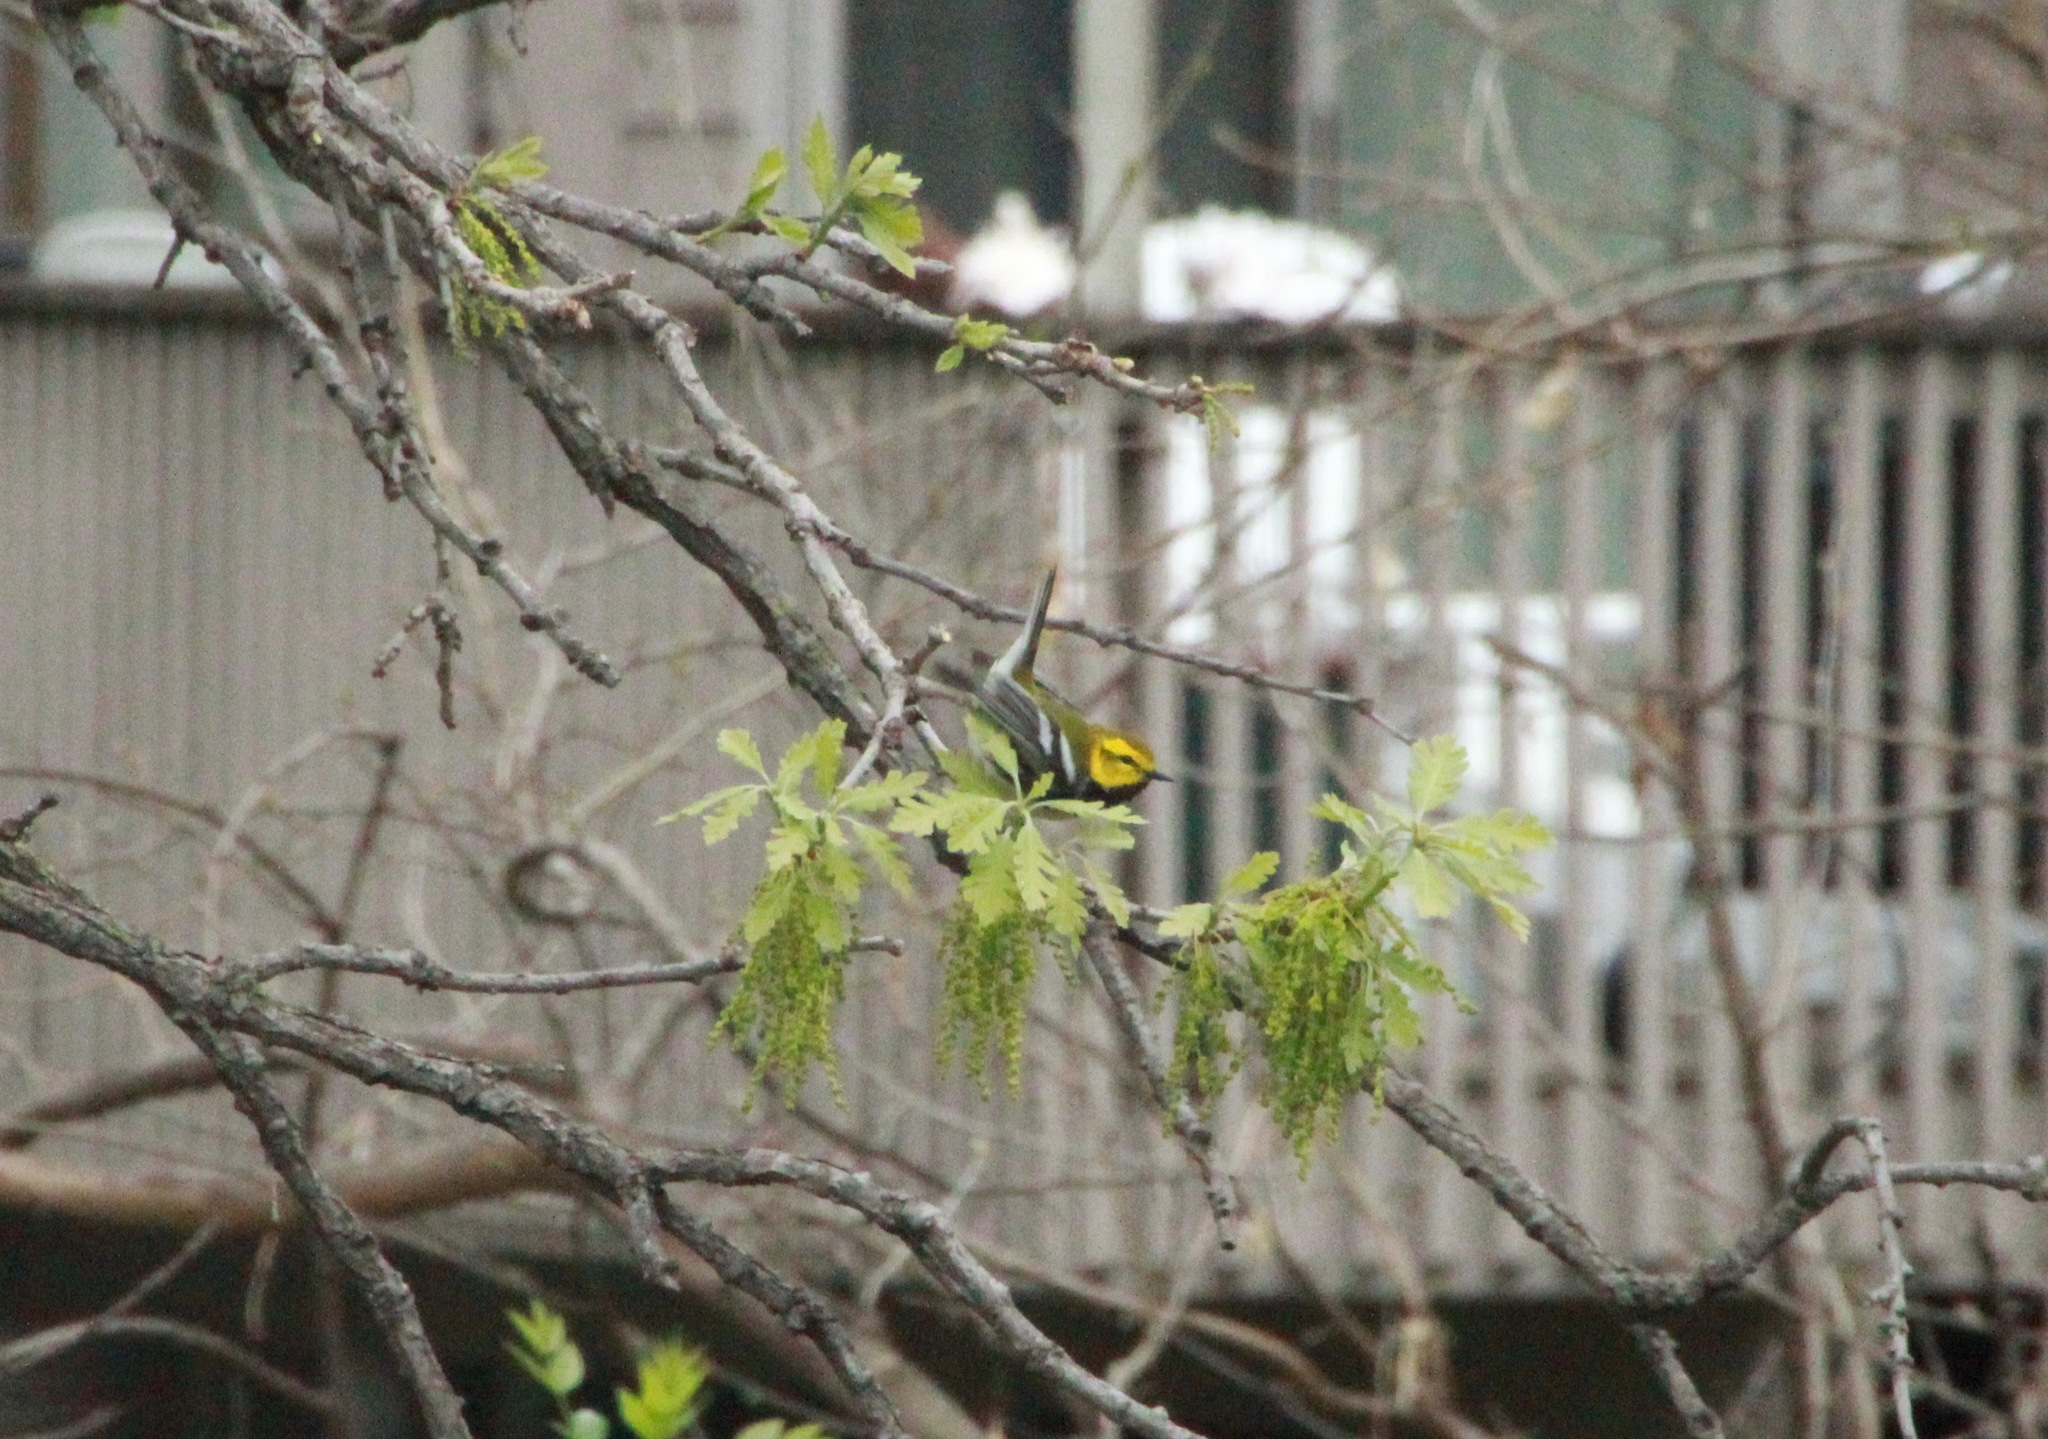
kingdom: Animalia
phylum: Chordata
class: Aves
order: Passeriformes
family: Parulidae
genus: Setophaga
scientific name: Setophaga virens
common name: Black-throated green warbler
